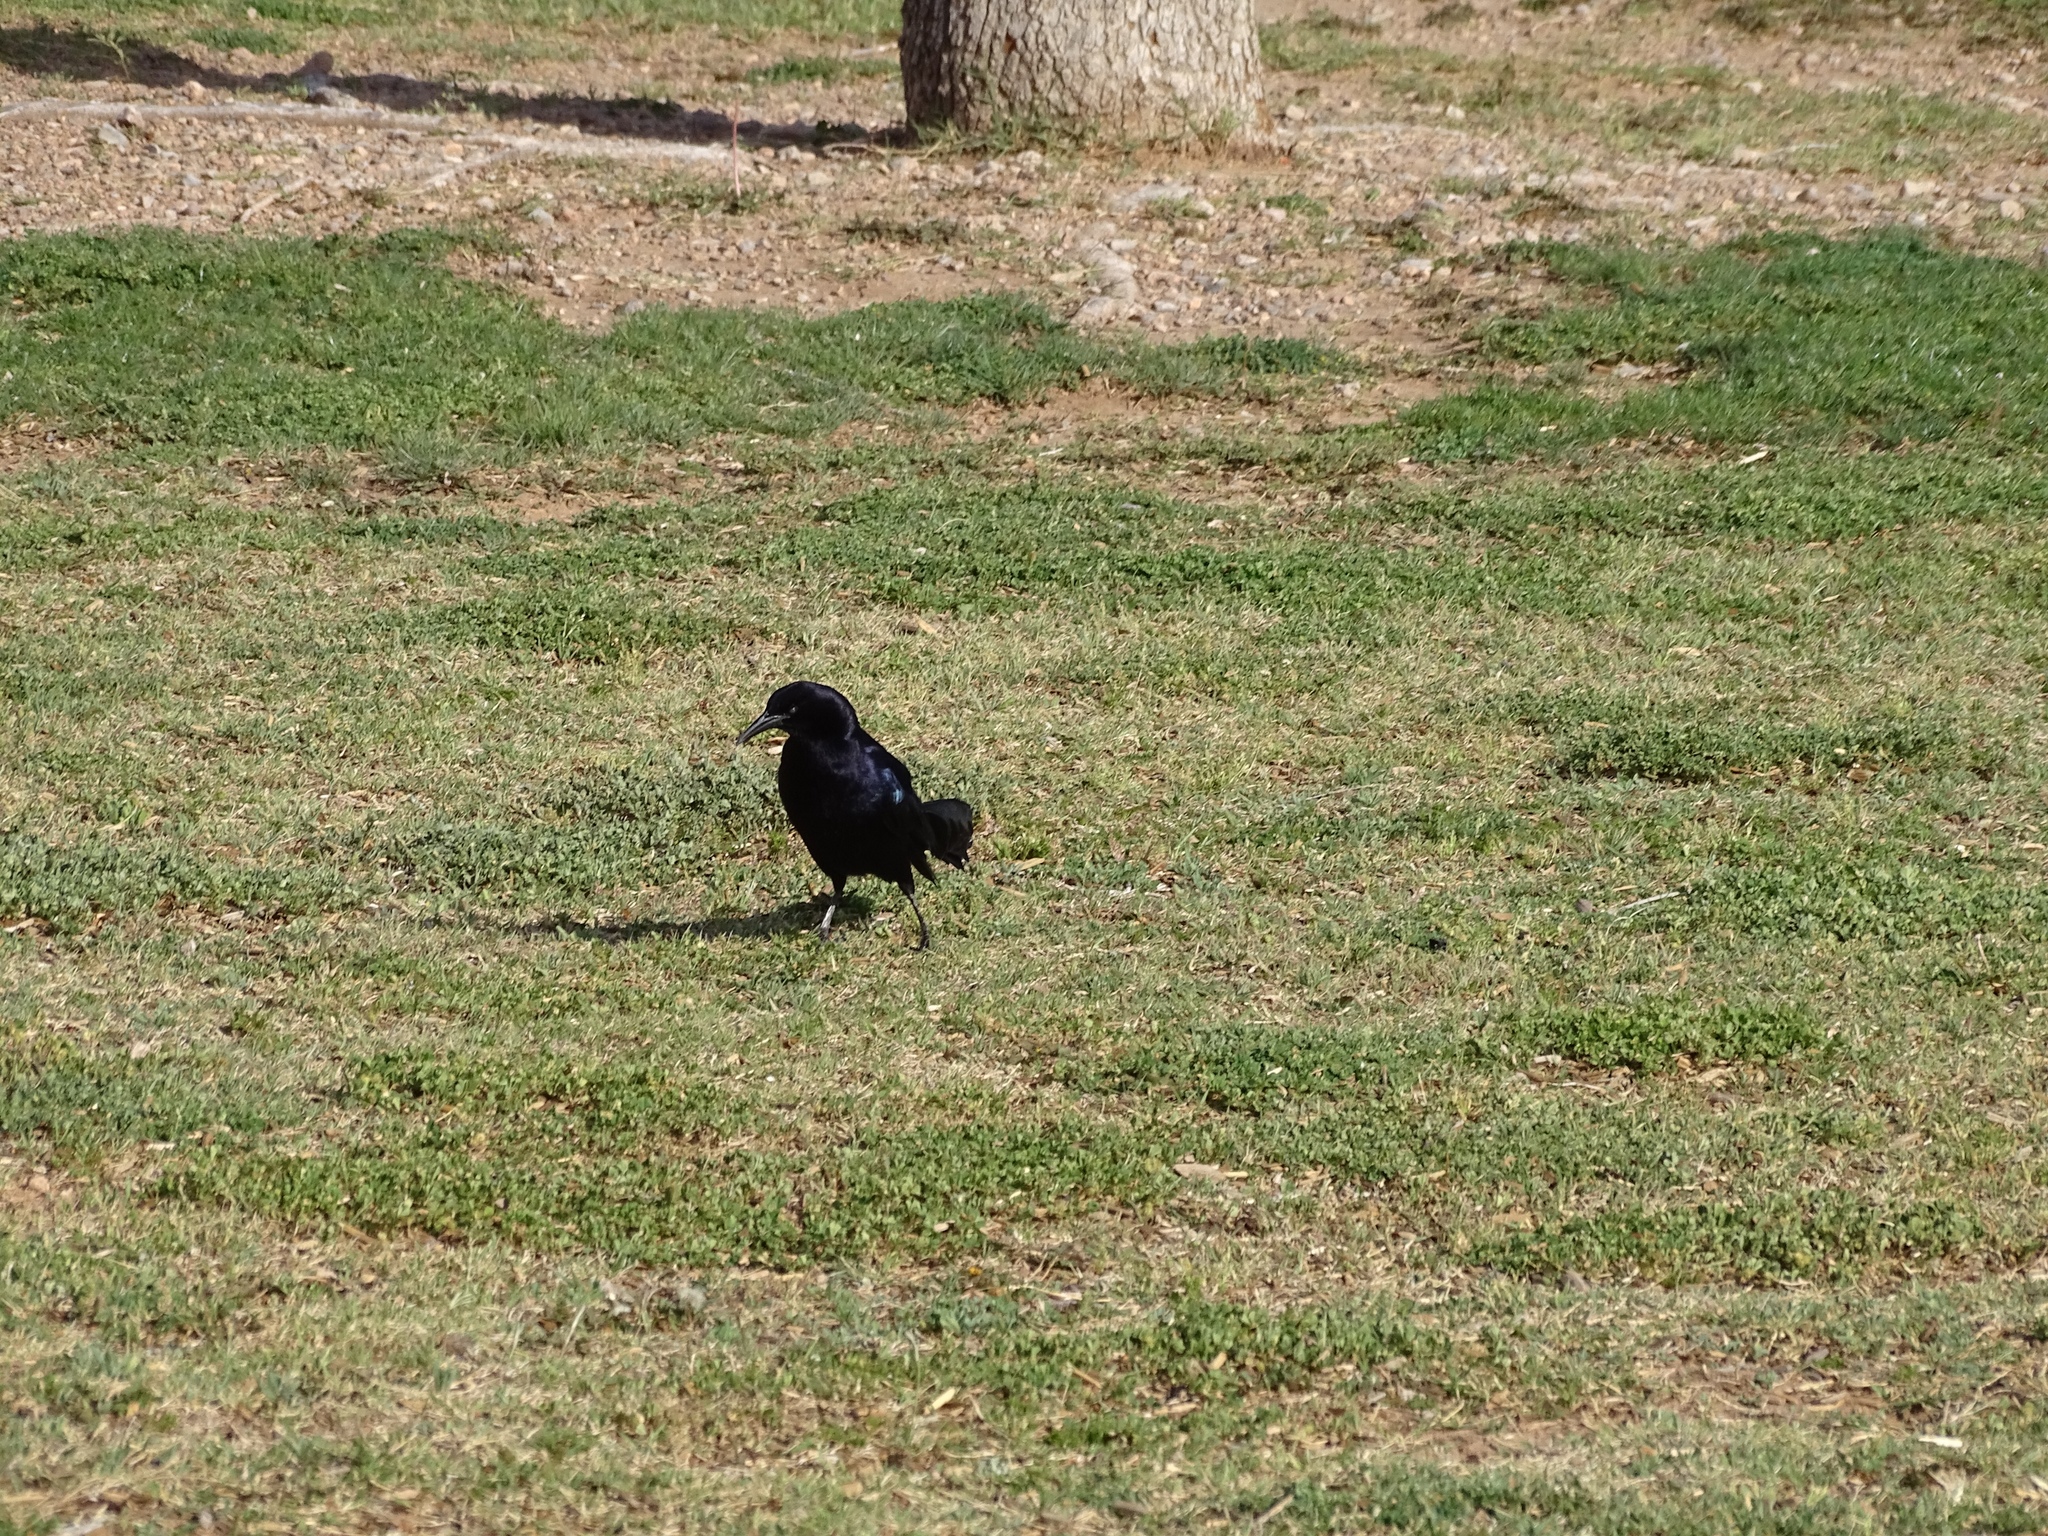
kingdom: Animalia
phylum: Chordata
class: Aves
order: Passeriformes
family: Icteridae
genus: Quiscalus
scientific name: Quiscalus mexicanus
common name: Great-tailed grackle
